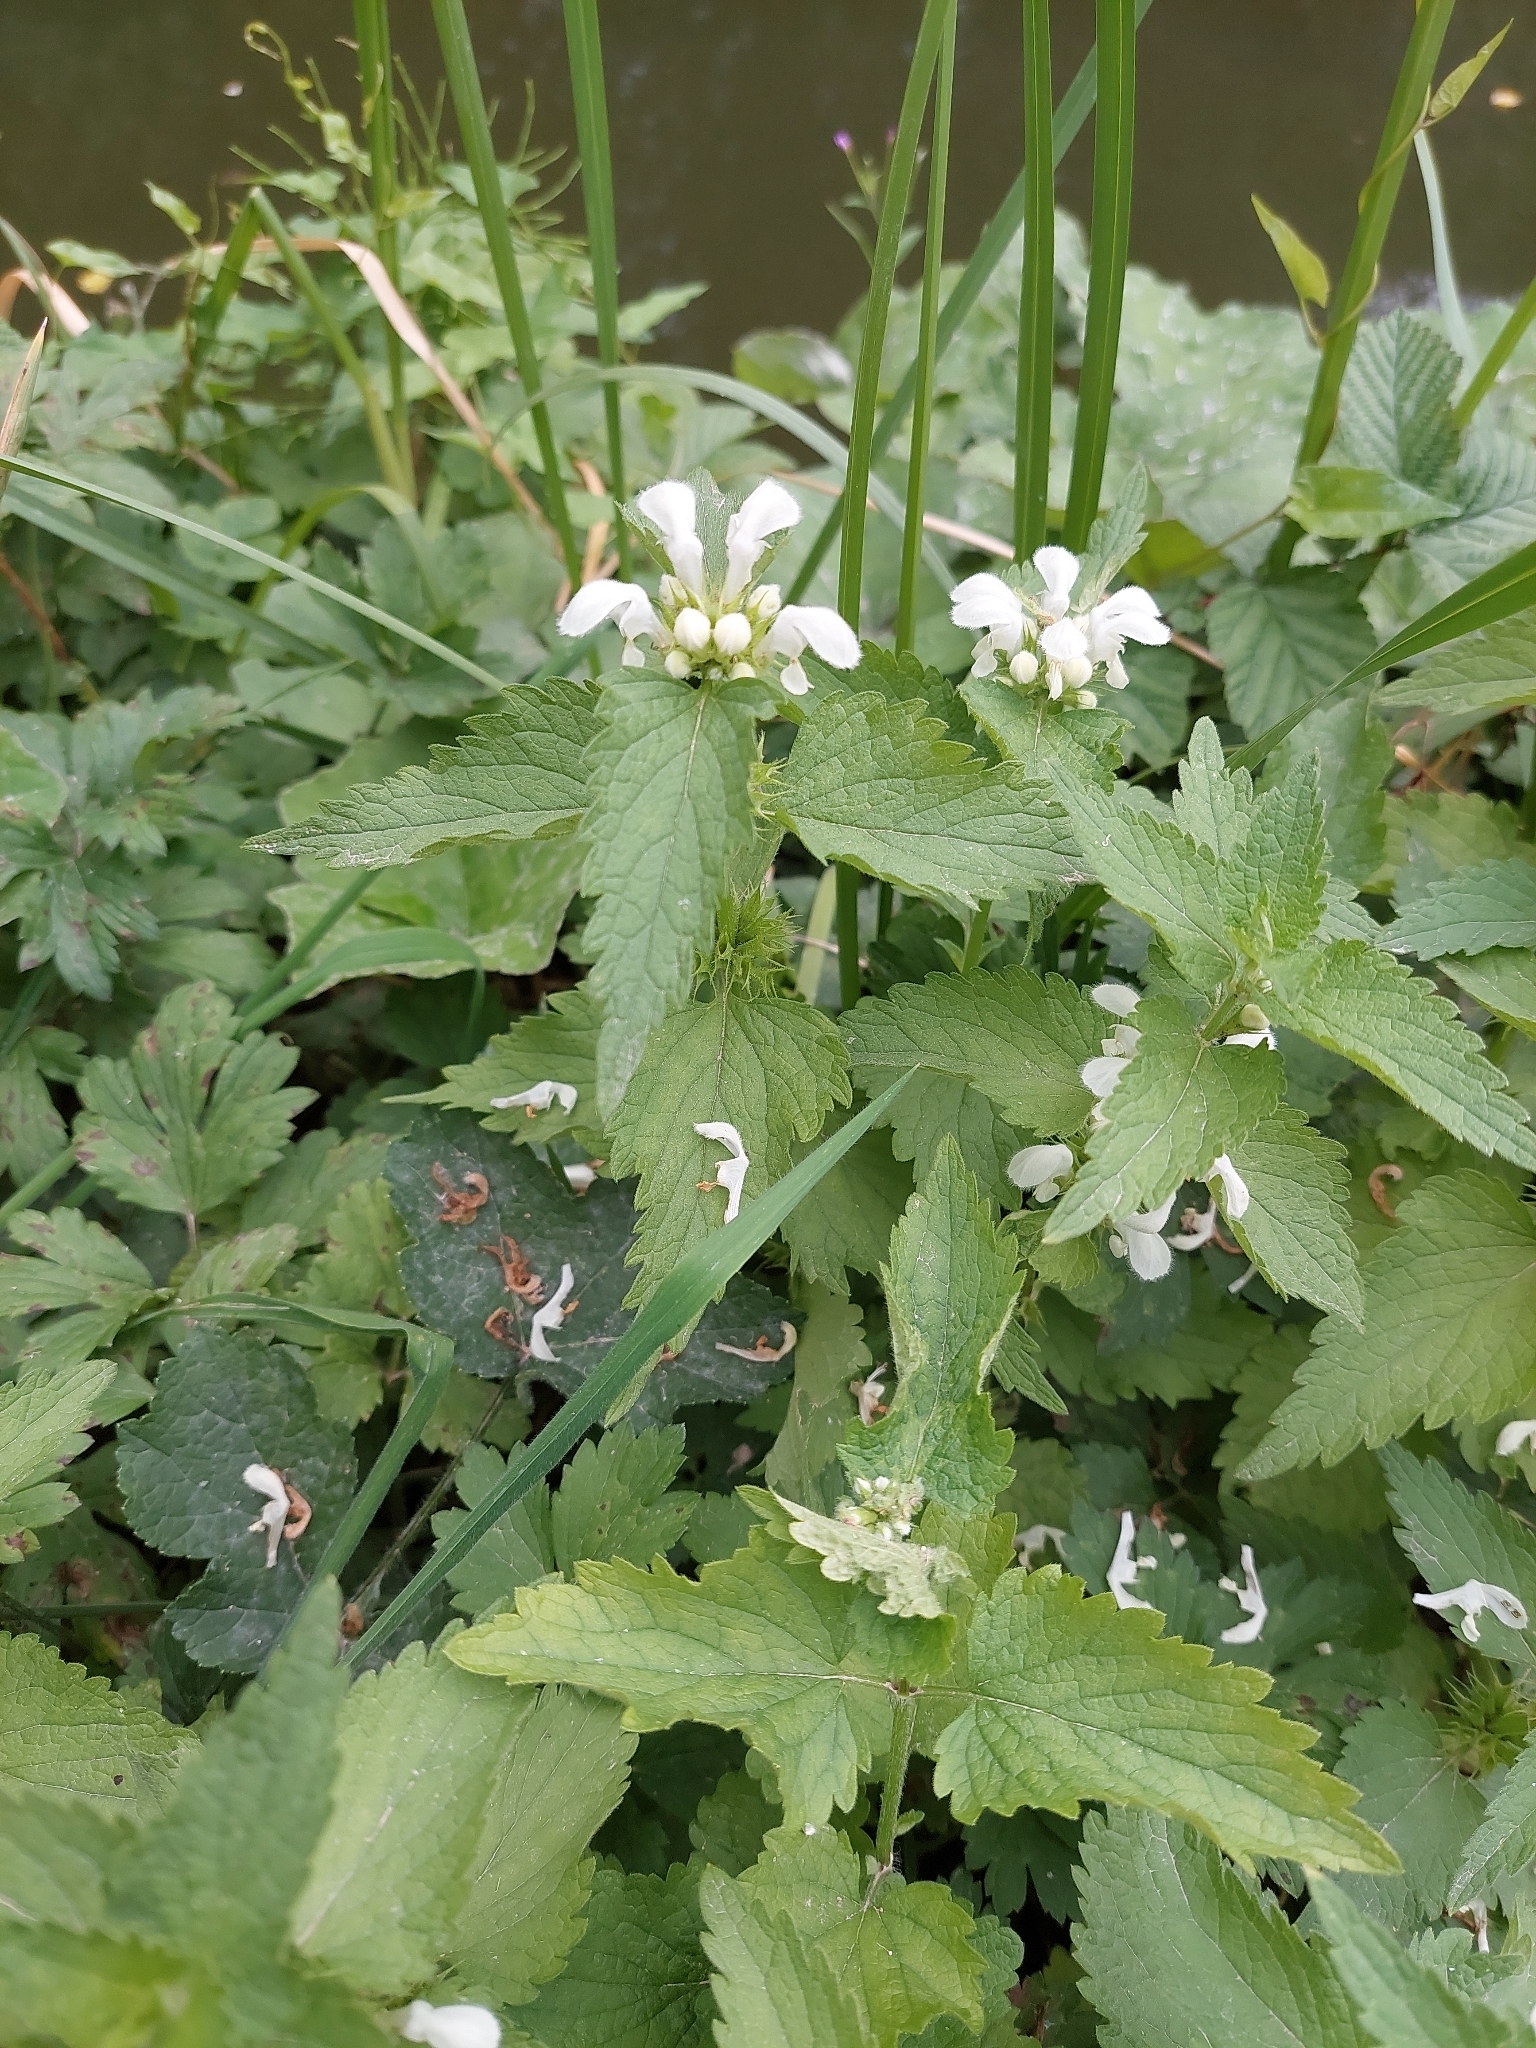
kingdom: Plantae
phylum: Tracheophyta
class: Magnoliopsida
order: Lamiales
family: Lamiaceae
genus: Lamium
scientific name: Lamium album
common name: White dead-nettle
